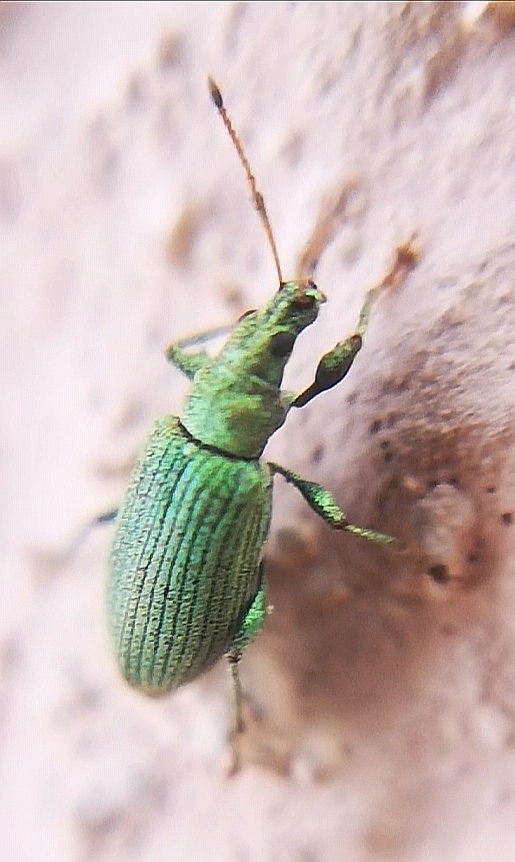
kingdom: Animalia
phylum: Arthropoda
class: Insecta
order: Coleoptera
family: Curculionidae
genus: Phyllobius
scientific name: Phyllobius maculicornis
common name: Green leaf weevil
